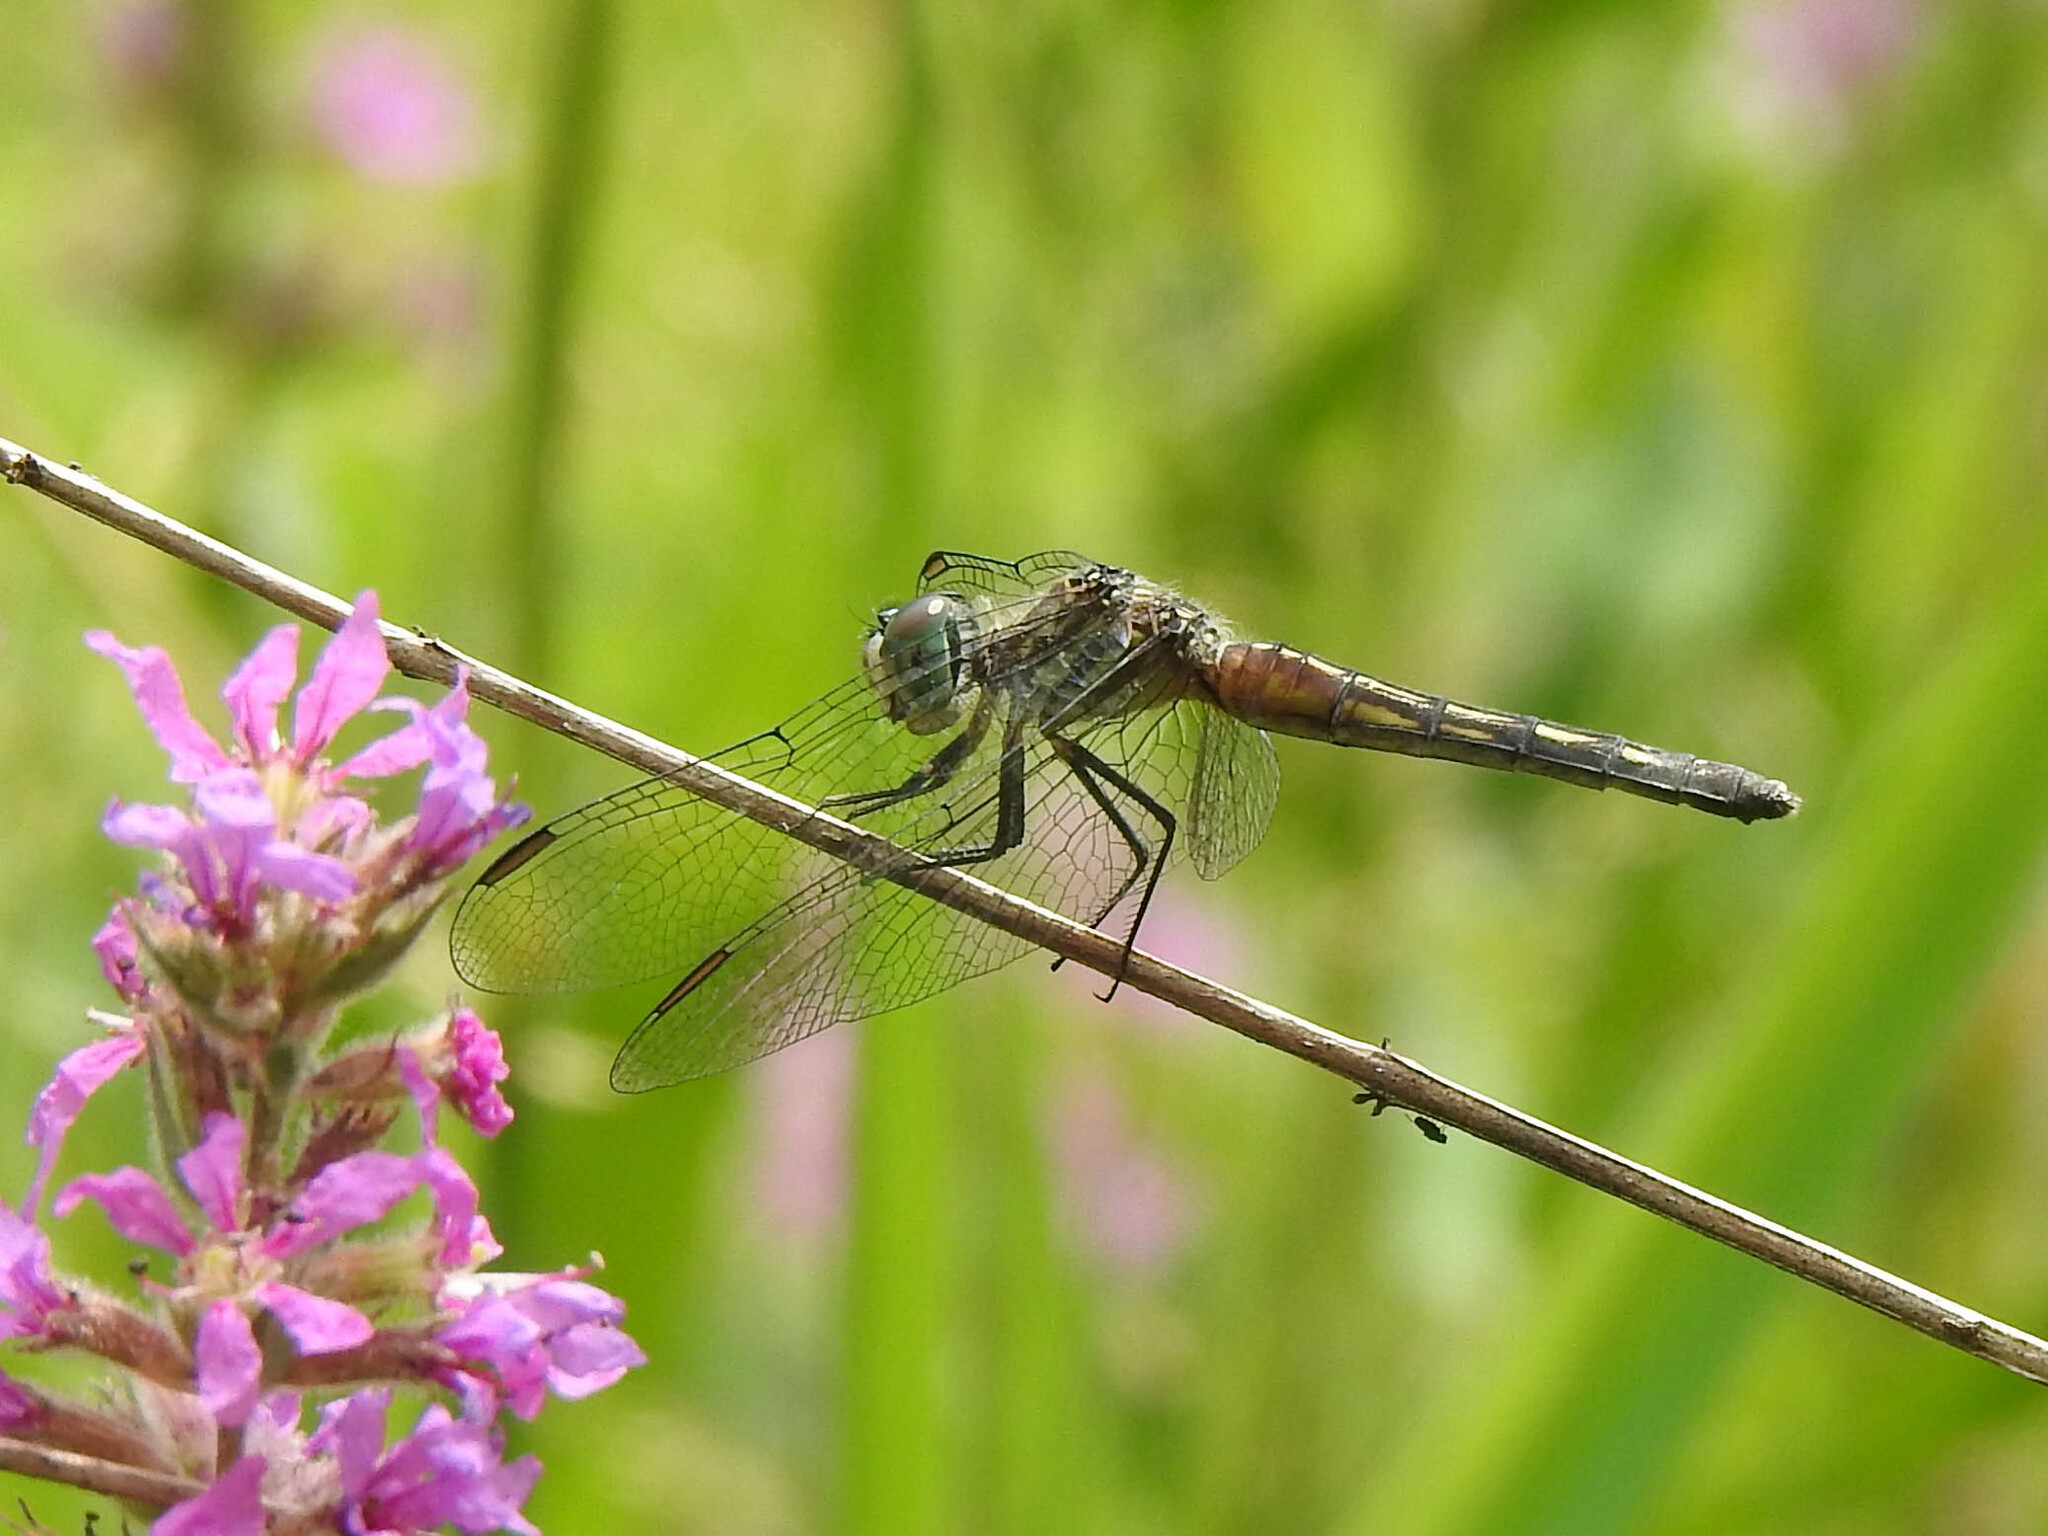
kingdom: Animalia
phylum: Arthropoda
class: Insecta
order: Odonata
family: Libellulidae
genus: Pachydiplax
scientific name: Pachydiplax longipennis
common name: Blue dasher
